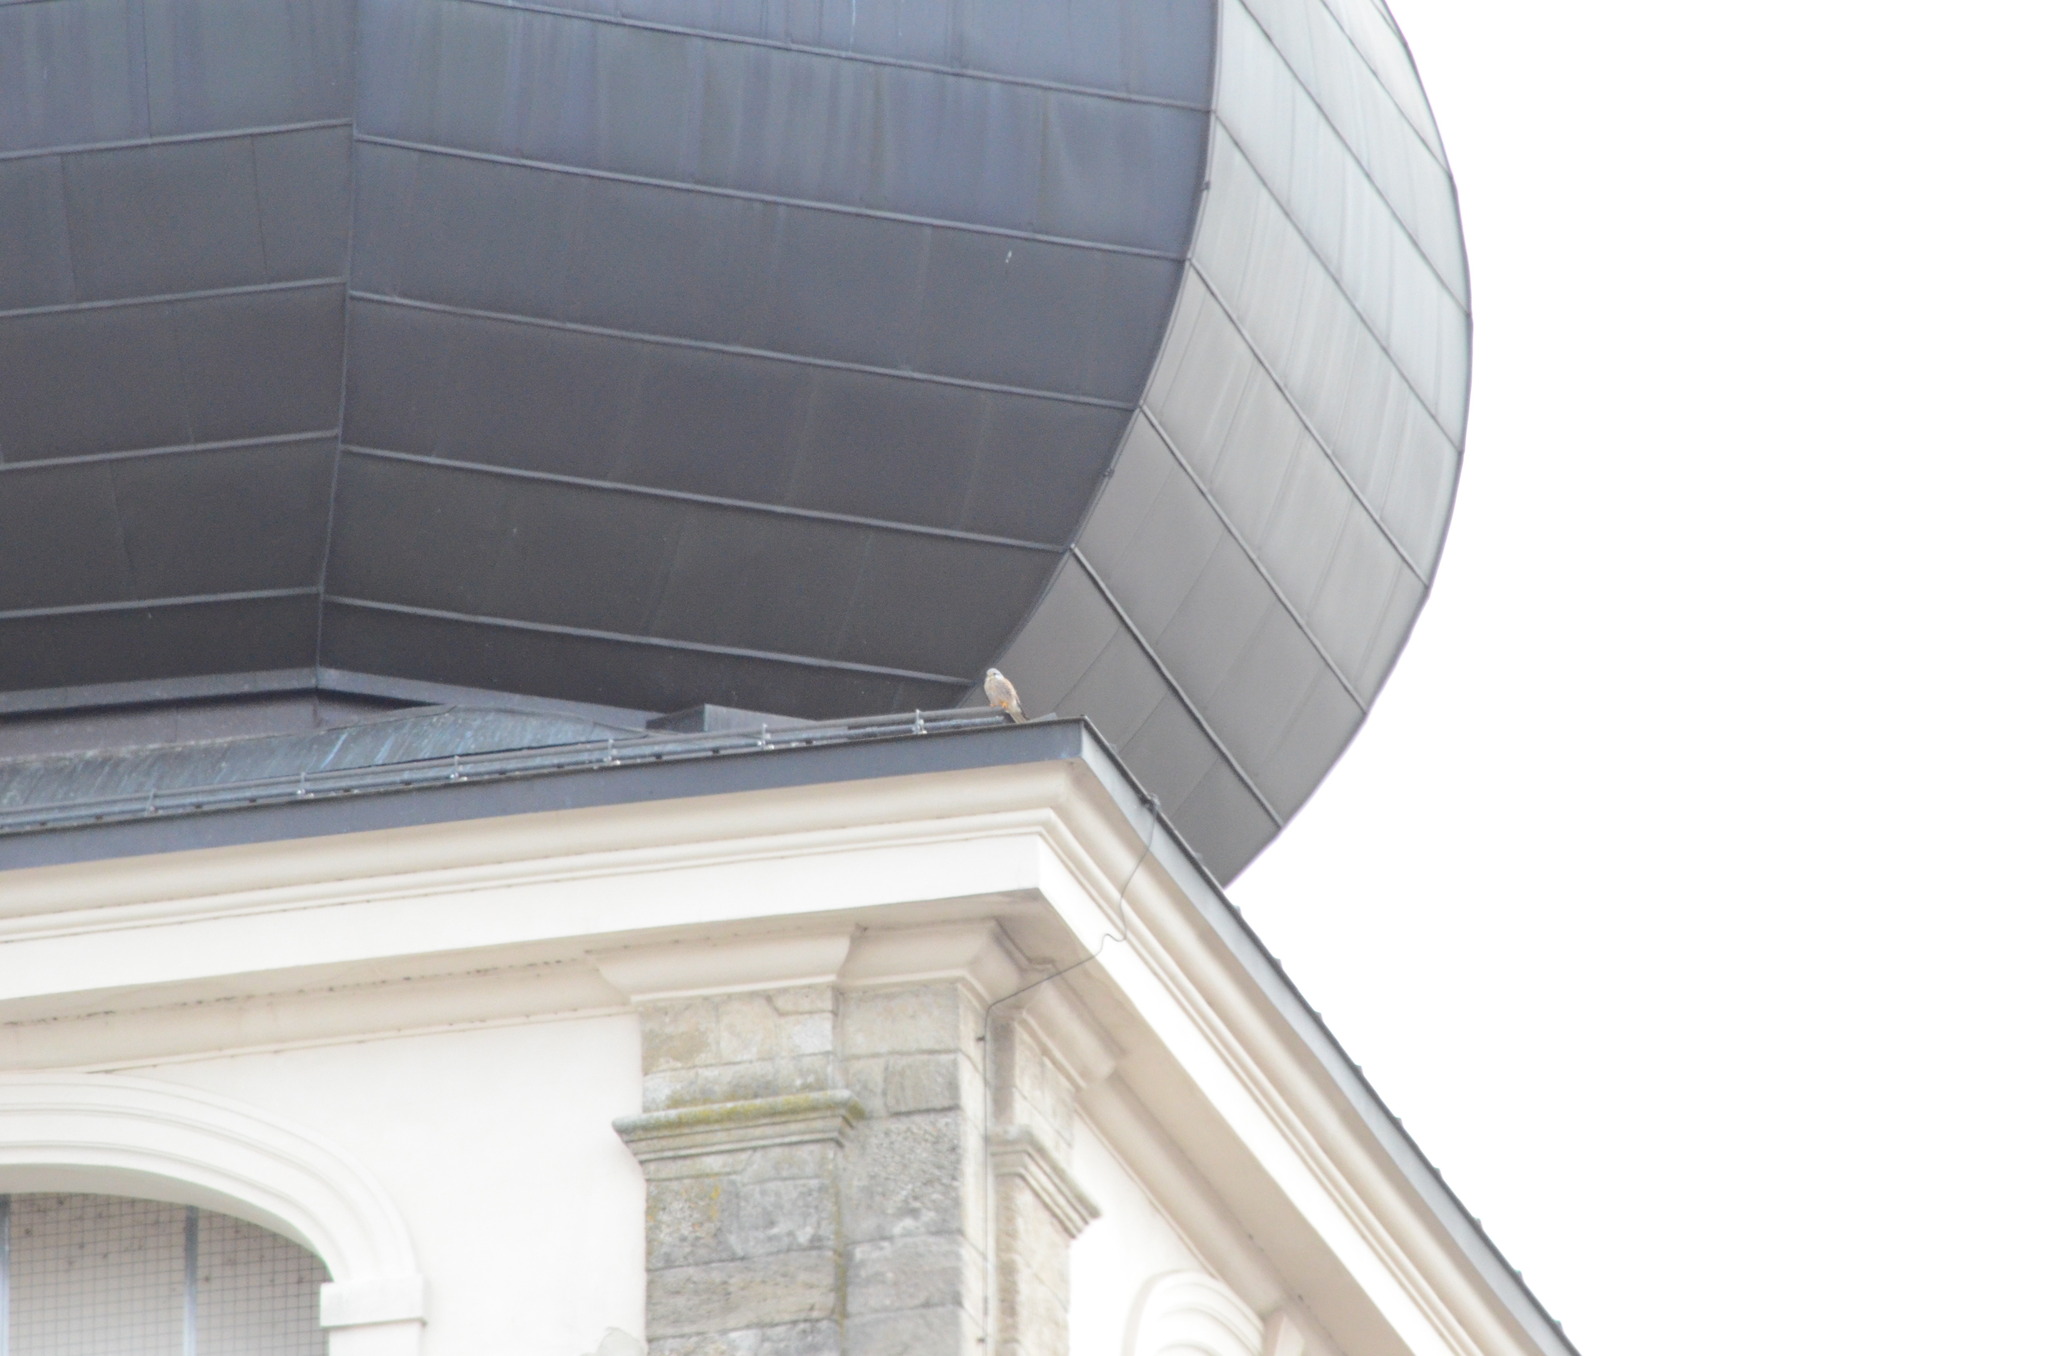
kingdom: Animalia
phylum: Chordata
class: Aves
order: Falconiformes
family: Falconidae
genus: Falco
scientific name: Falco tinnunculus
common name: Common kestrel
